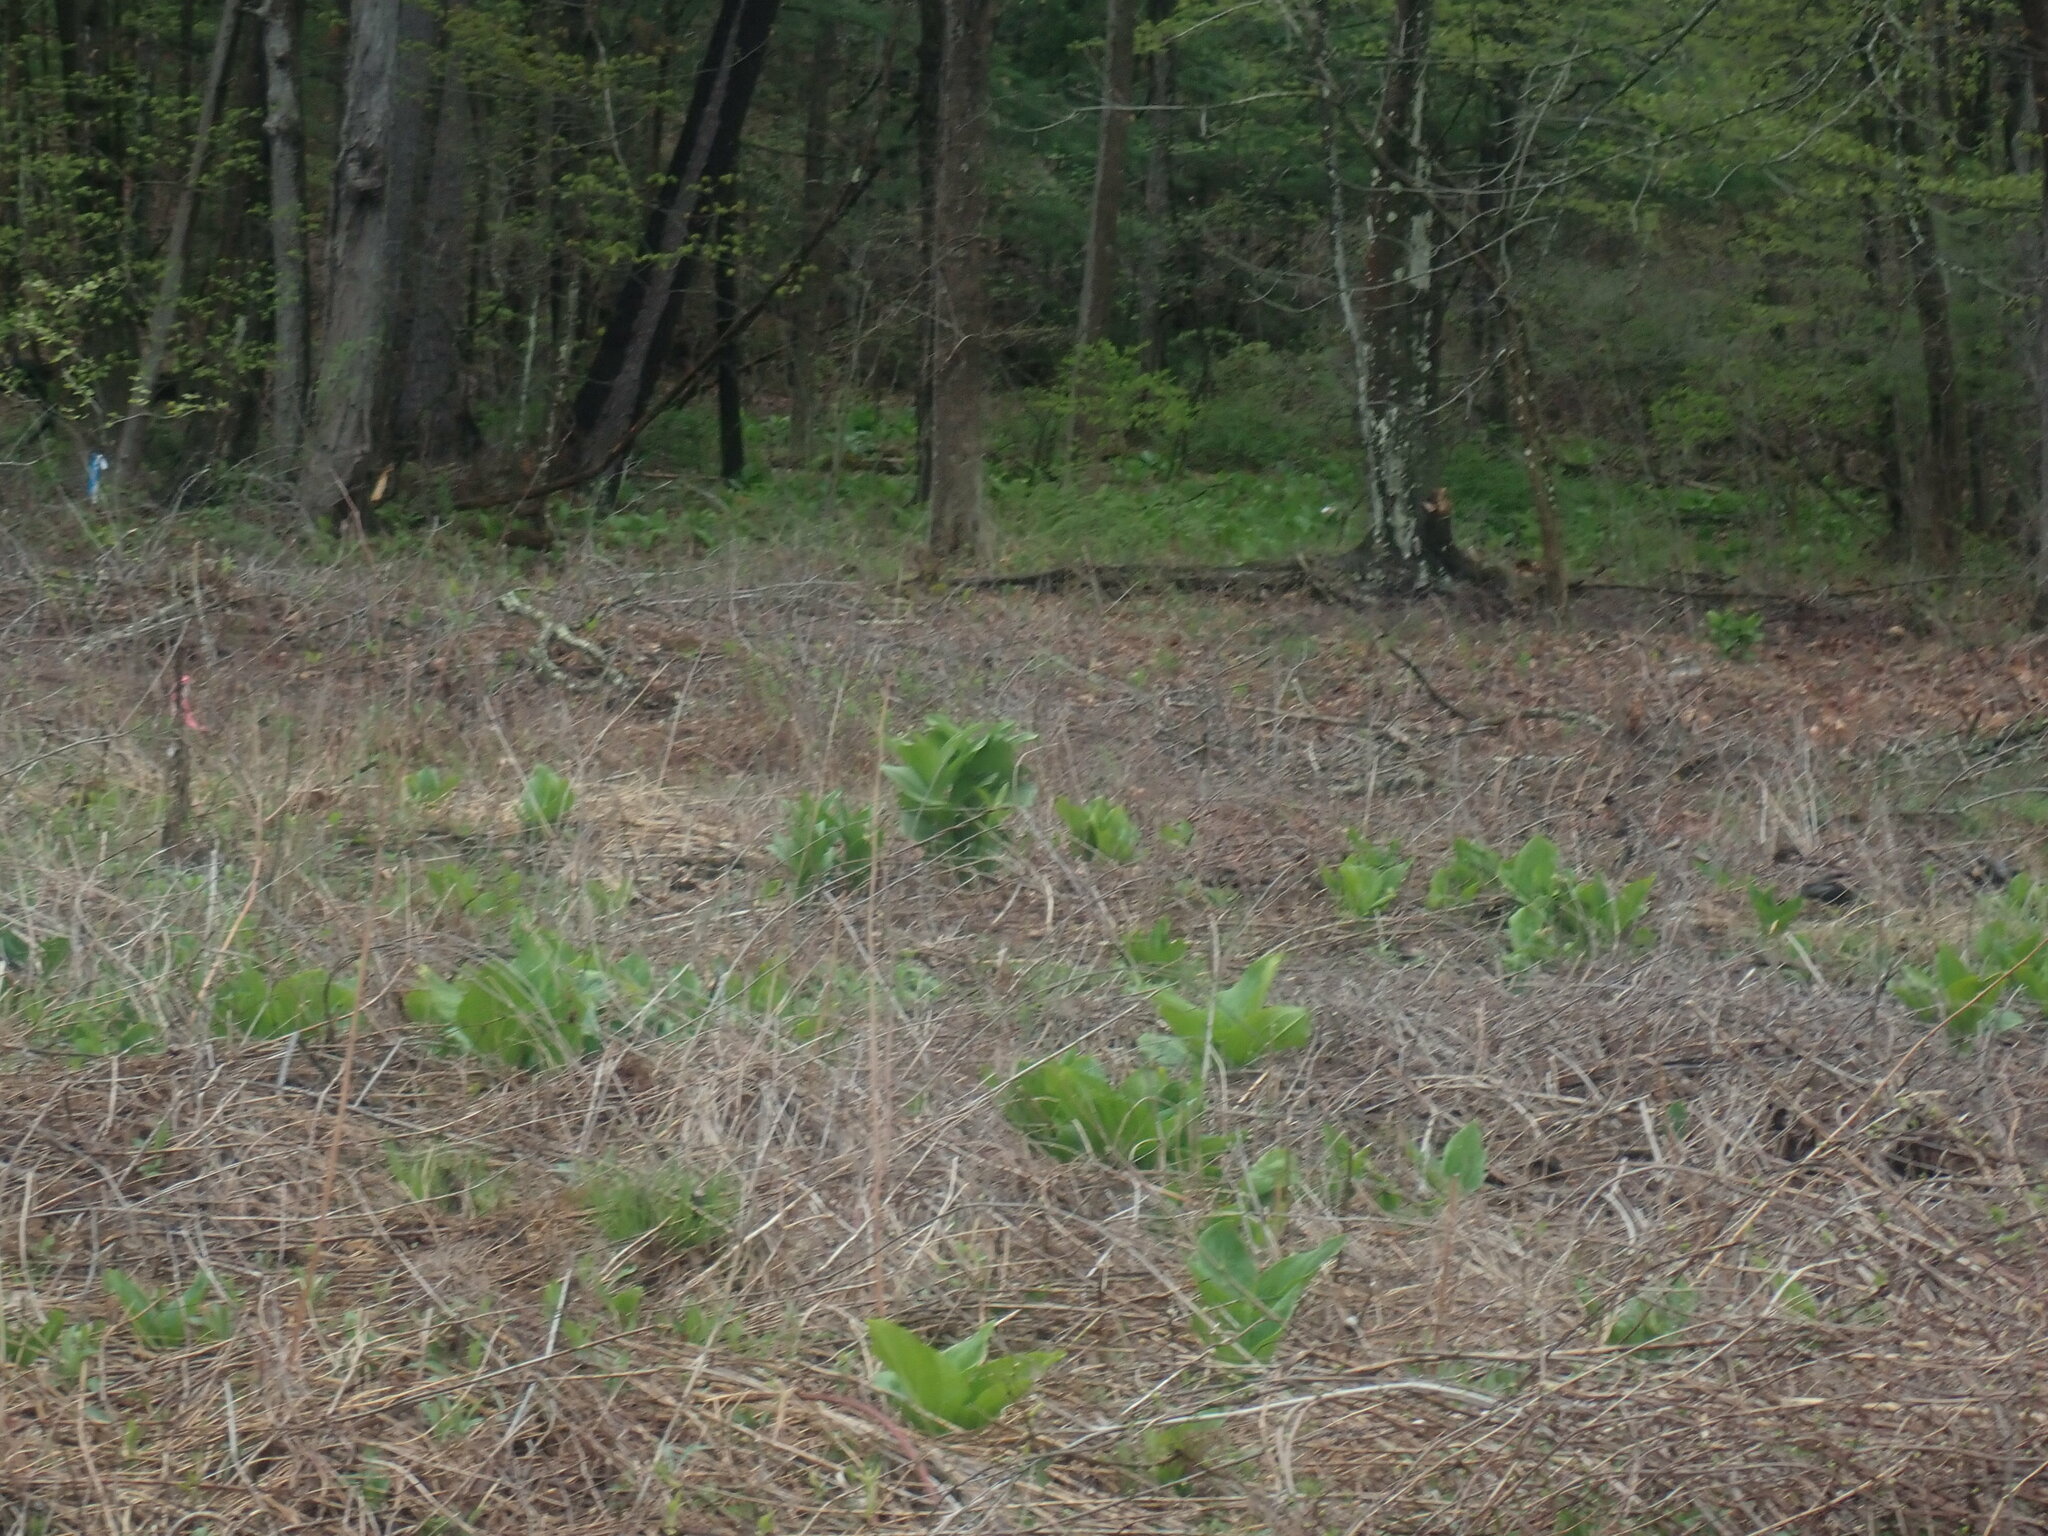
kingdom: Plantae
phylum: Tracheophyta
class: Liliopsida
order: Liliales
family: Melanthiaceae
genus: Veratrum
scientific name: Veratrum viride
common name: American false hellebore
